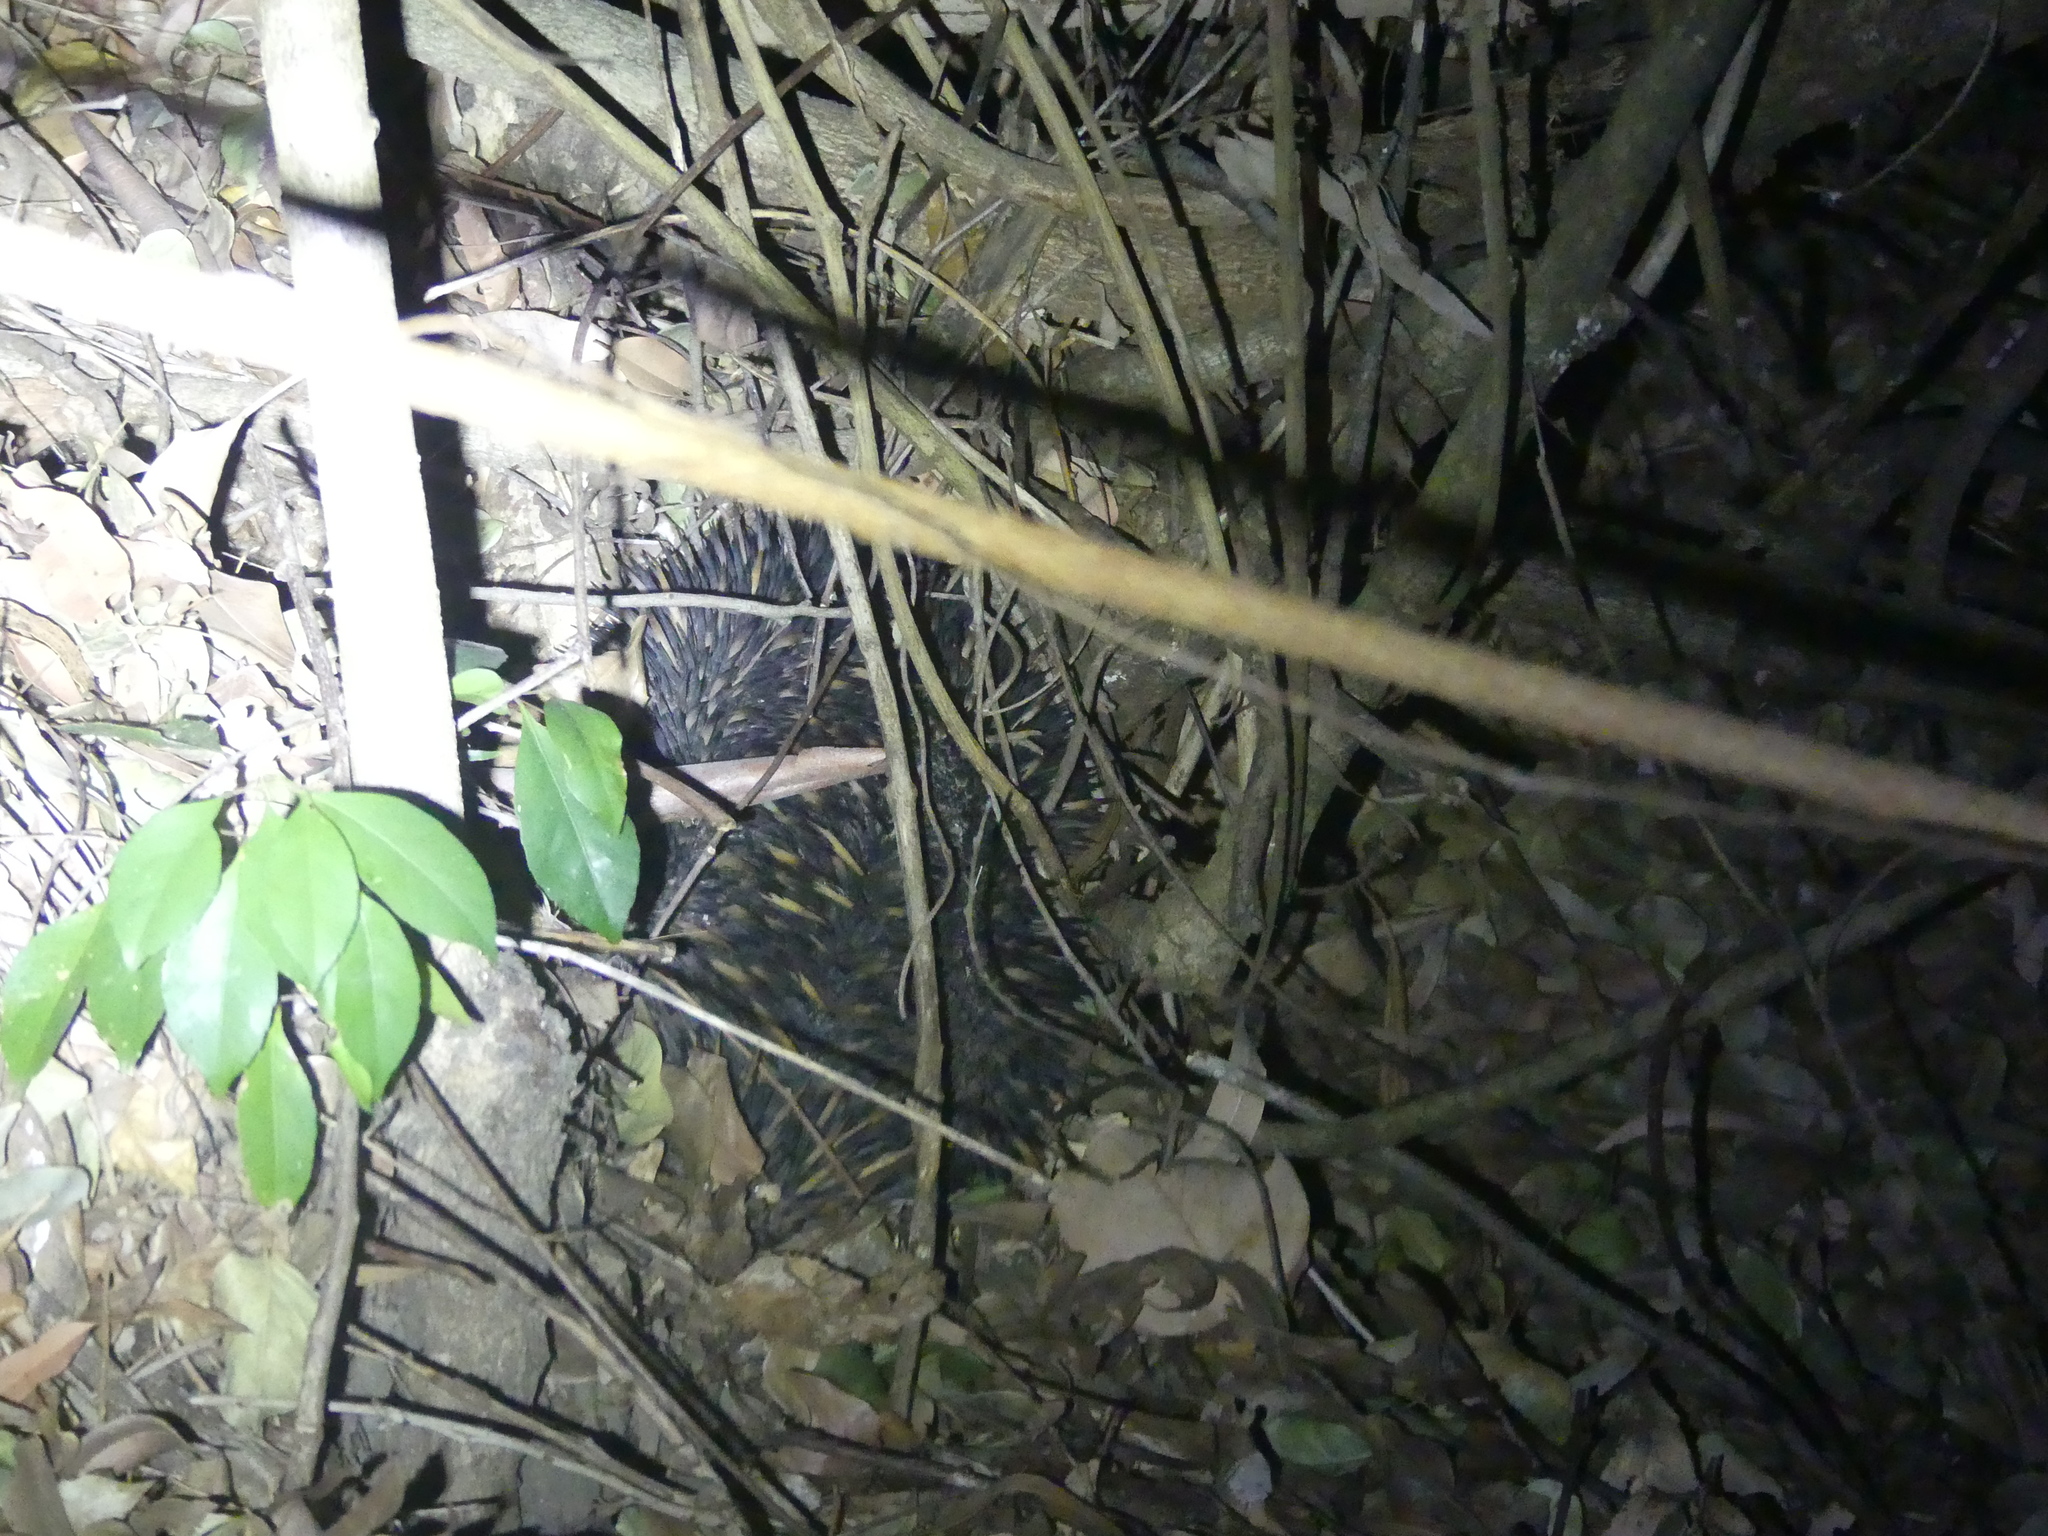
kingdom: Animalia
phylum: Chordata
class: Mammalia
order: Monotremata
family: Tachyglossidae
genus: Tachyglossus
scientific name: Tachyglossus aculeatus
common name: Short-beaked echidna
